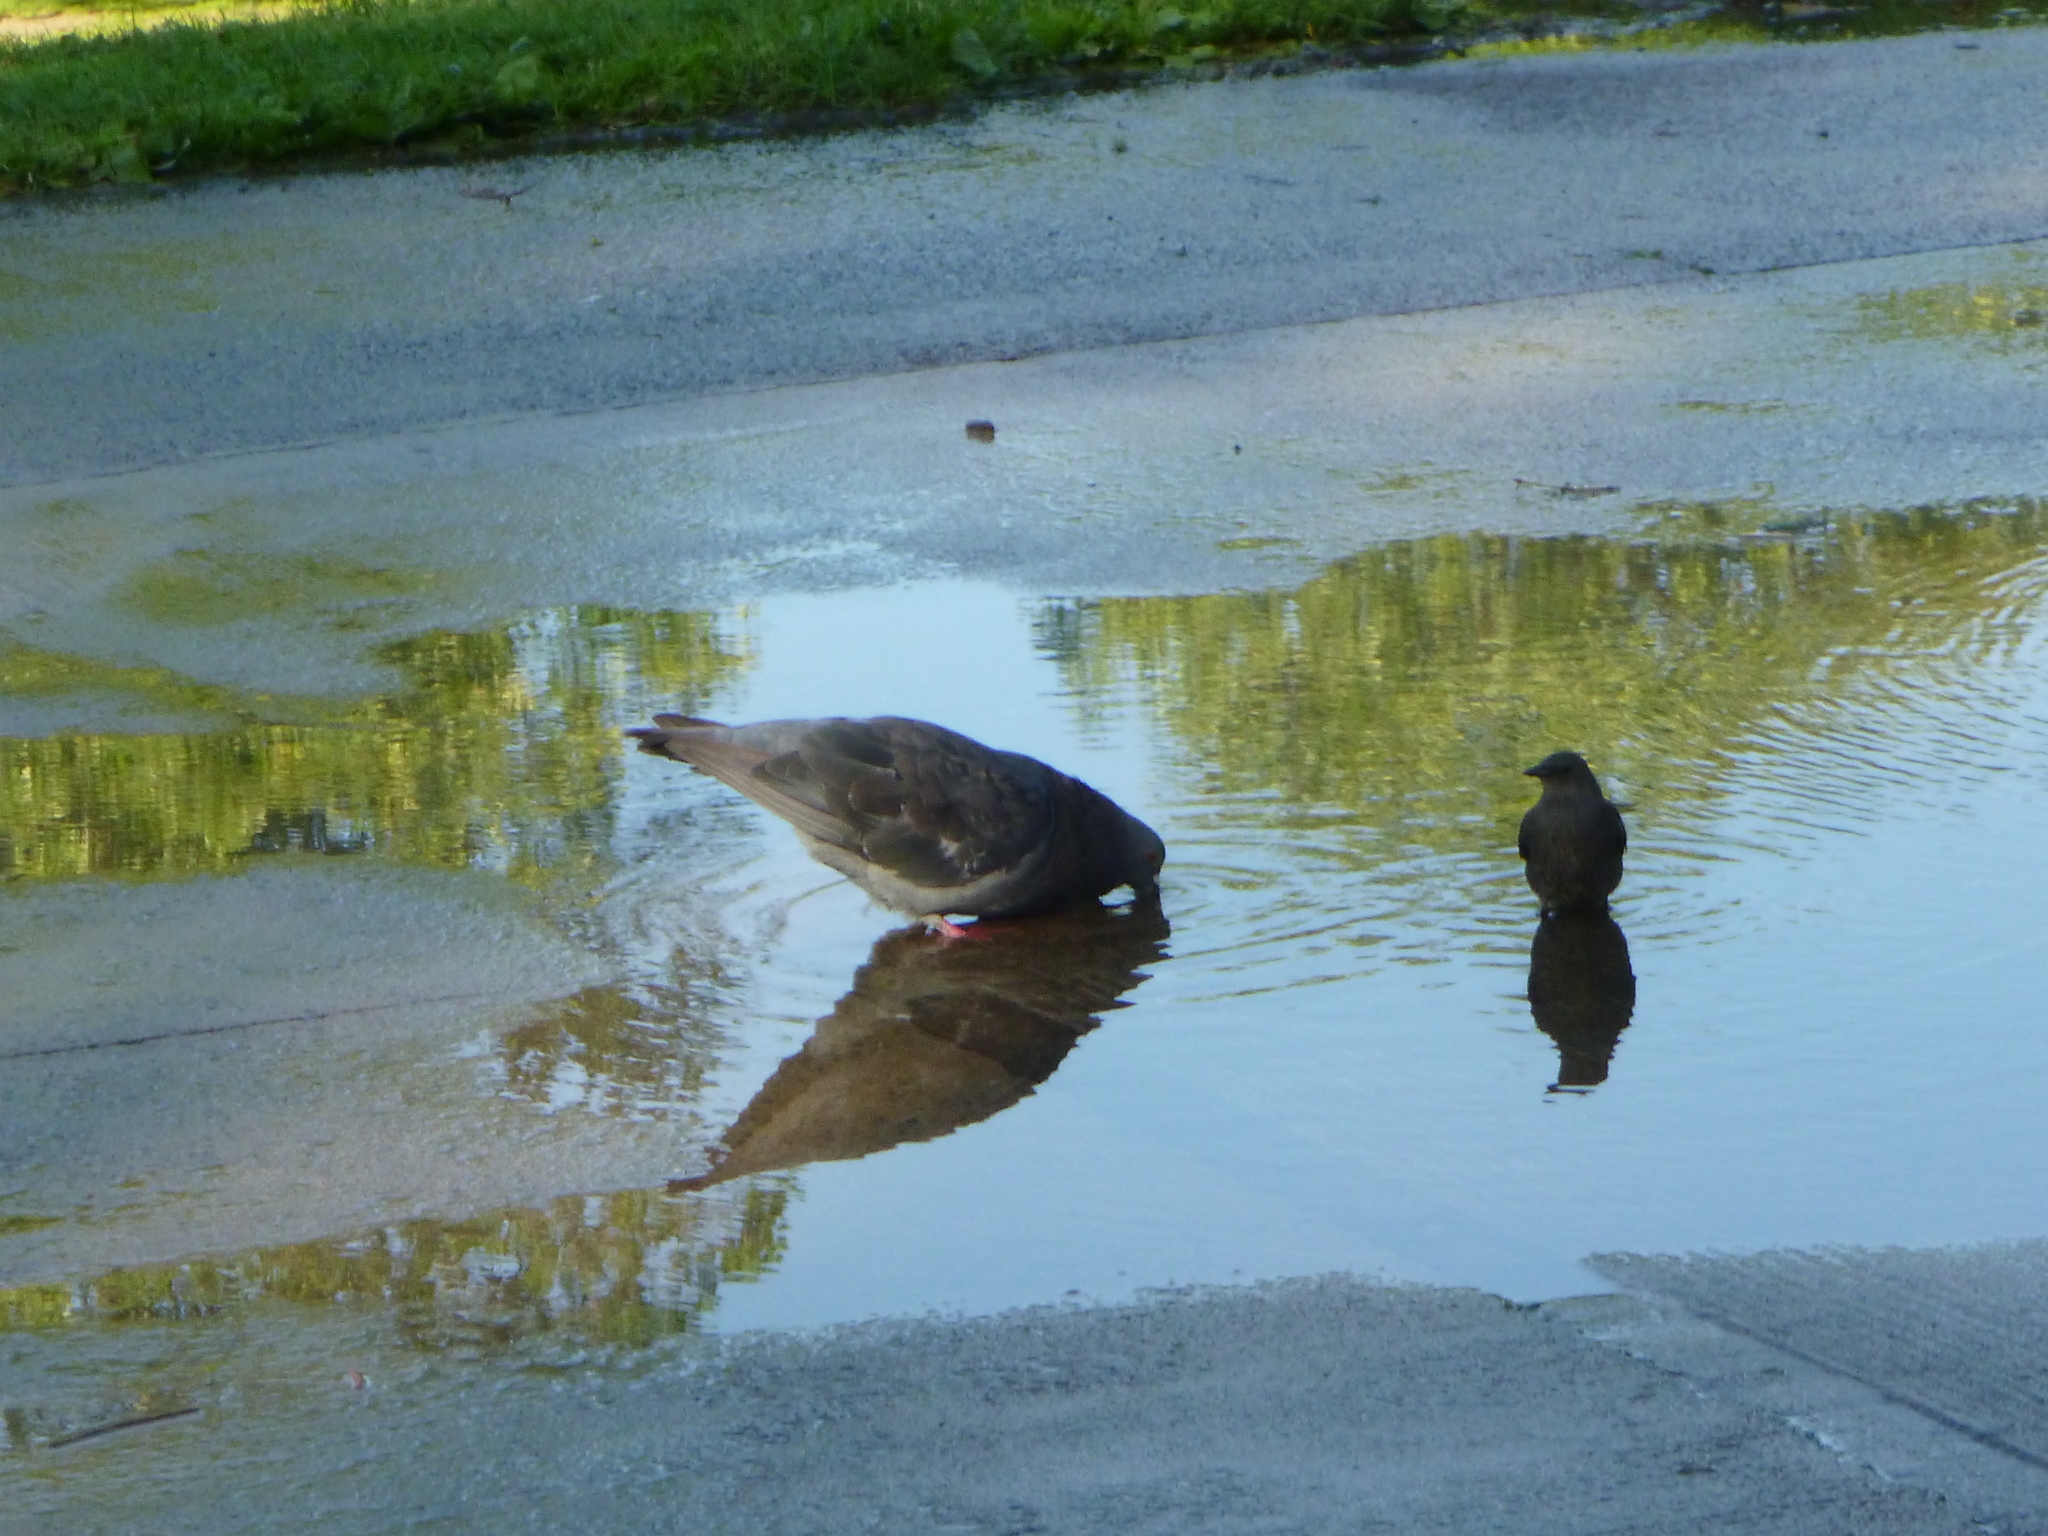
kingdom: Animalia
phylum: Chordata
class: Aves
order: Passeriformes
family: Sturnidae
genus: Sturnus
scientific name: Sturnus vulgaris
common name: Common starling
